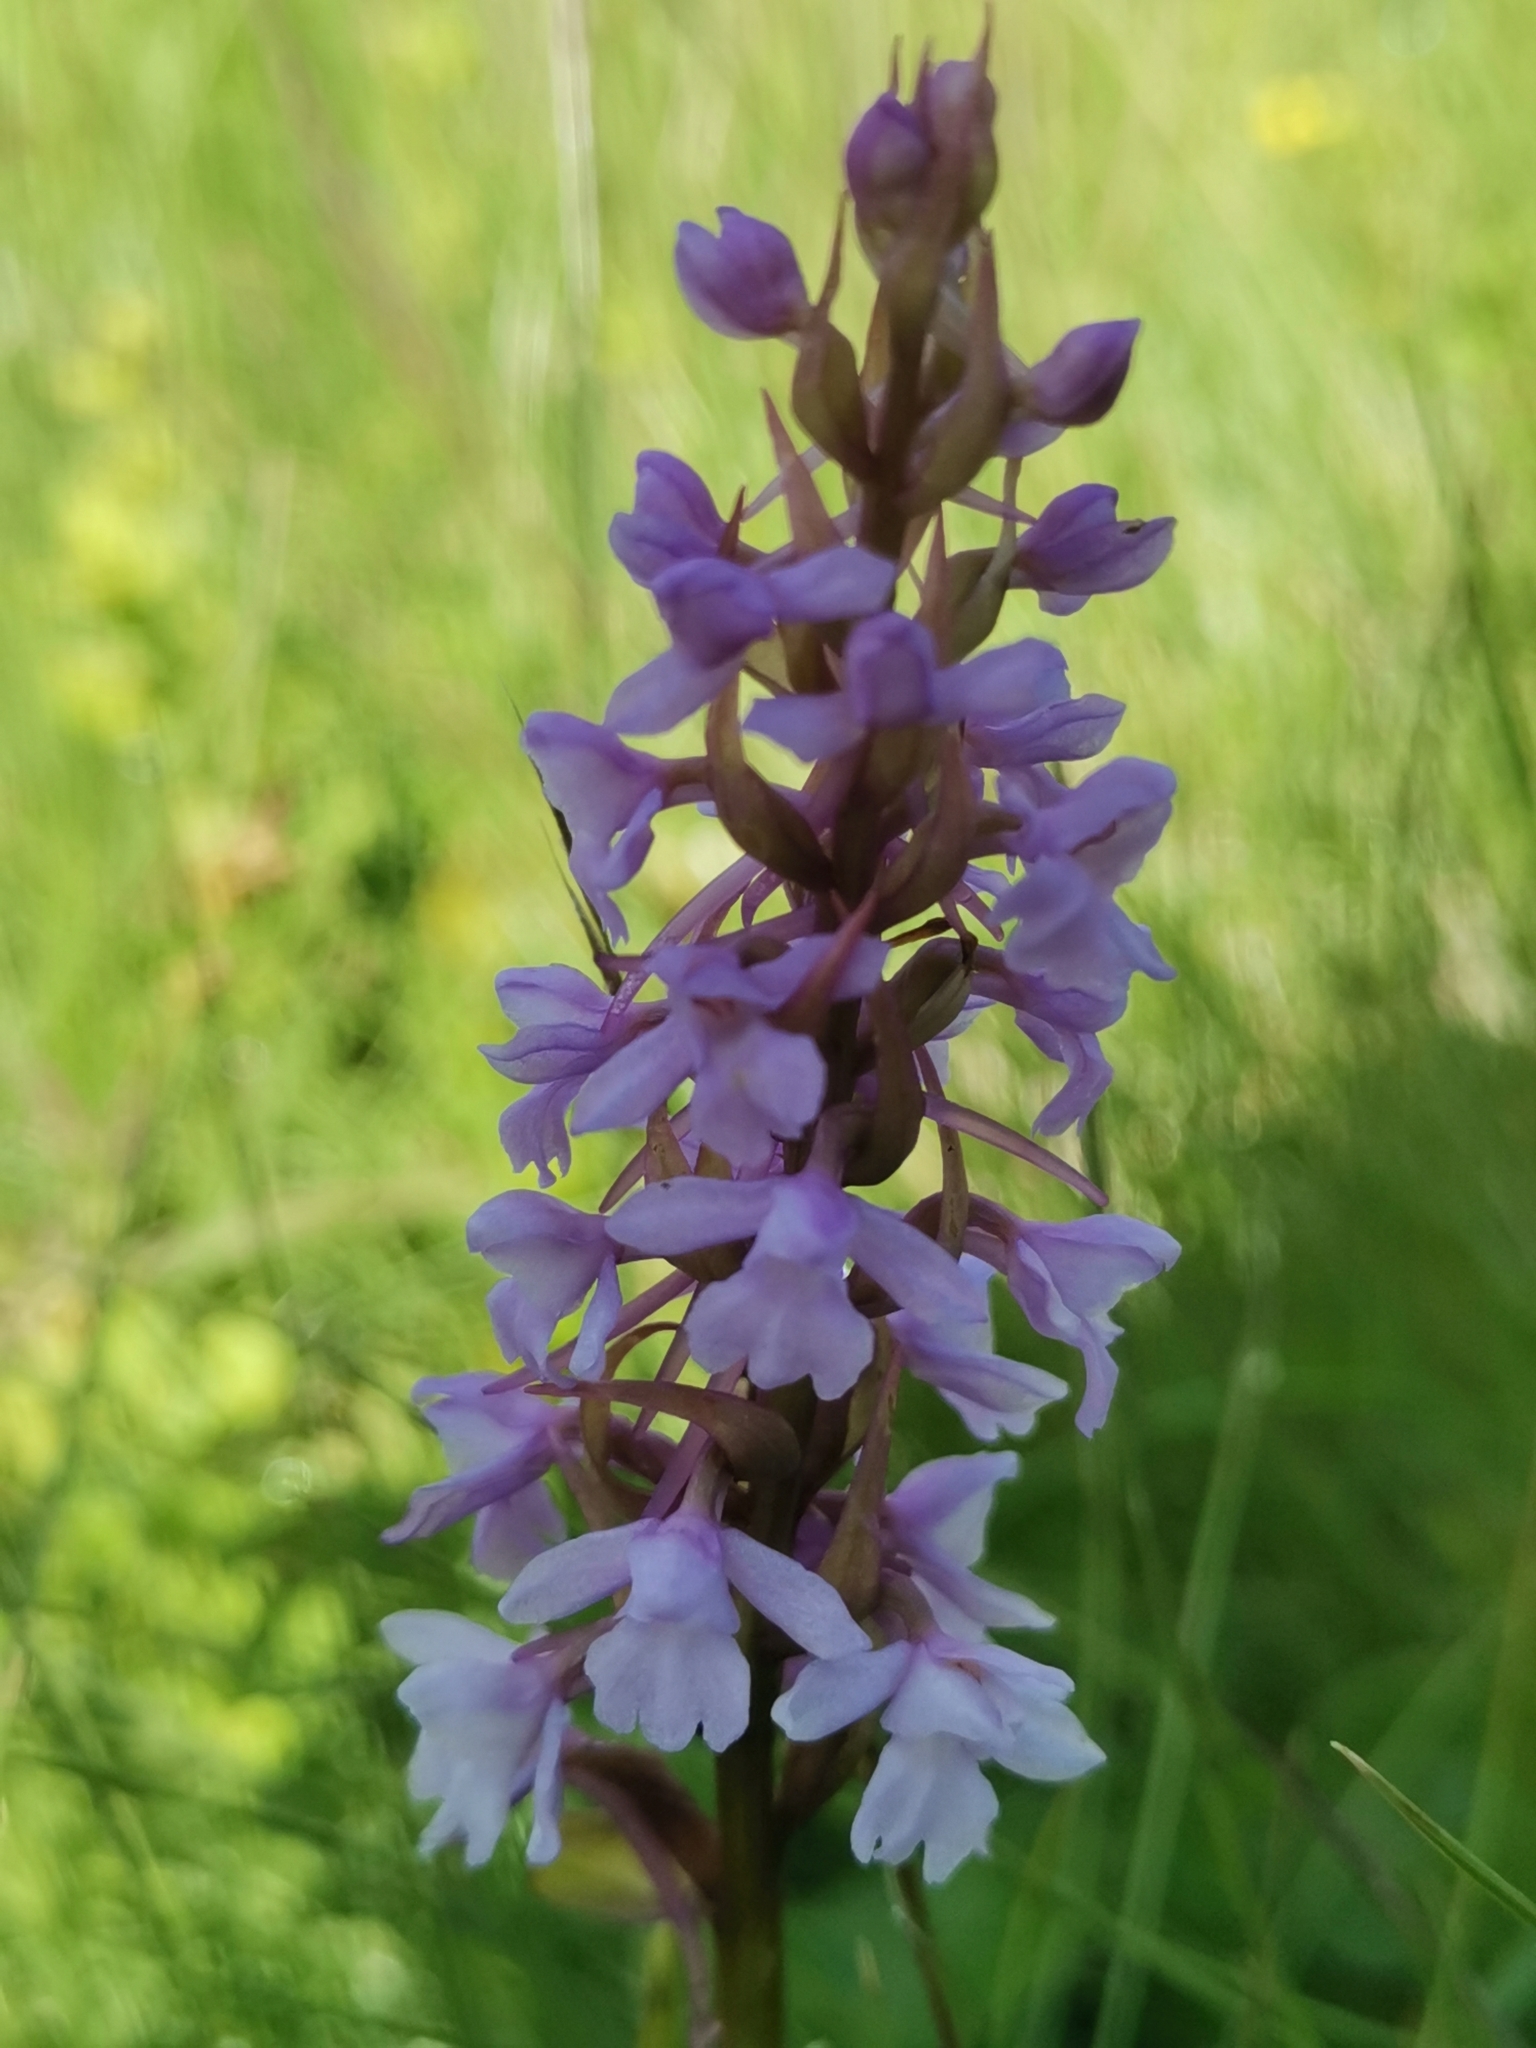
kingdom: Plantae
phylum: Tracheophyta
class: Liliopsida
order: Asparagales
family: Orchidaceae
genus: Gymnadenia
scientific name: Gymnadenia conopsea
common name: Fragrant orchid
